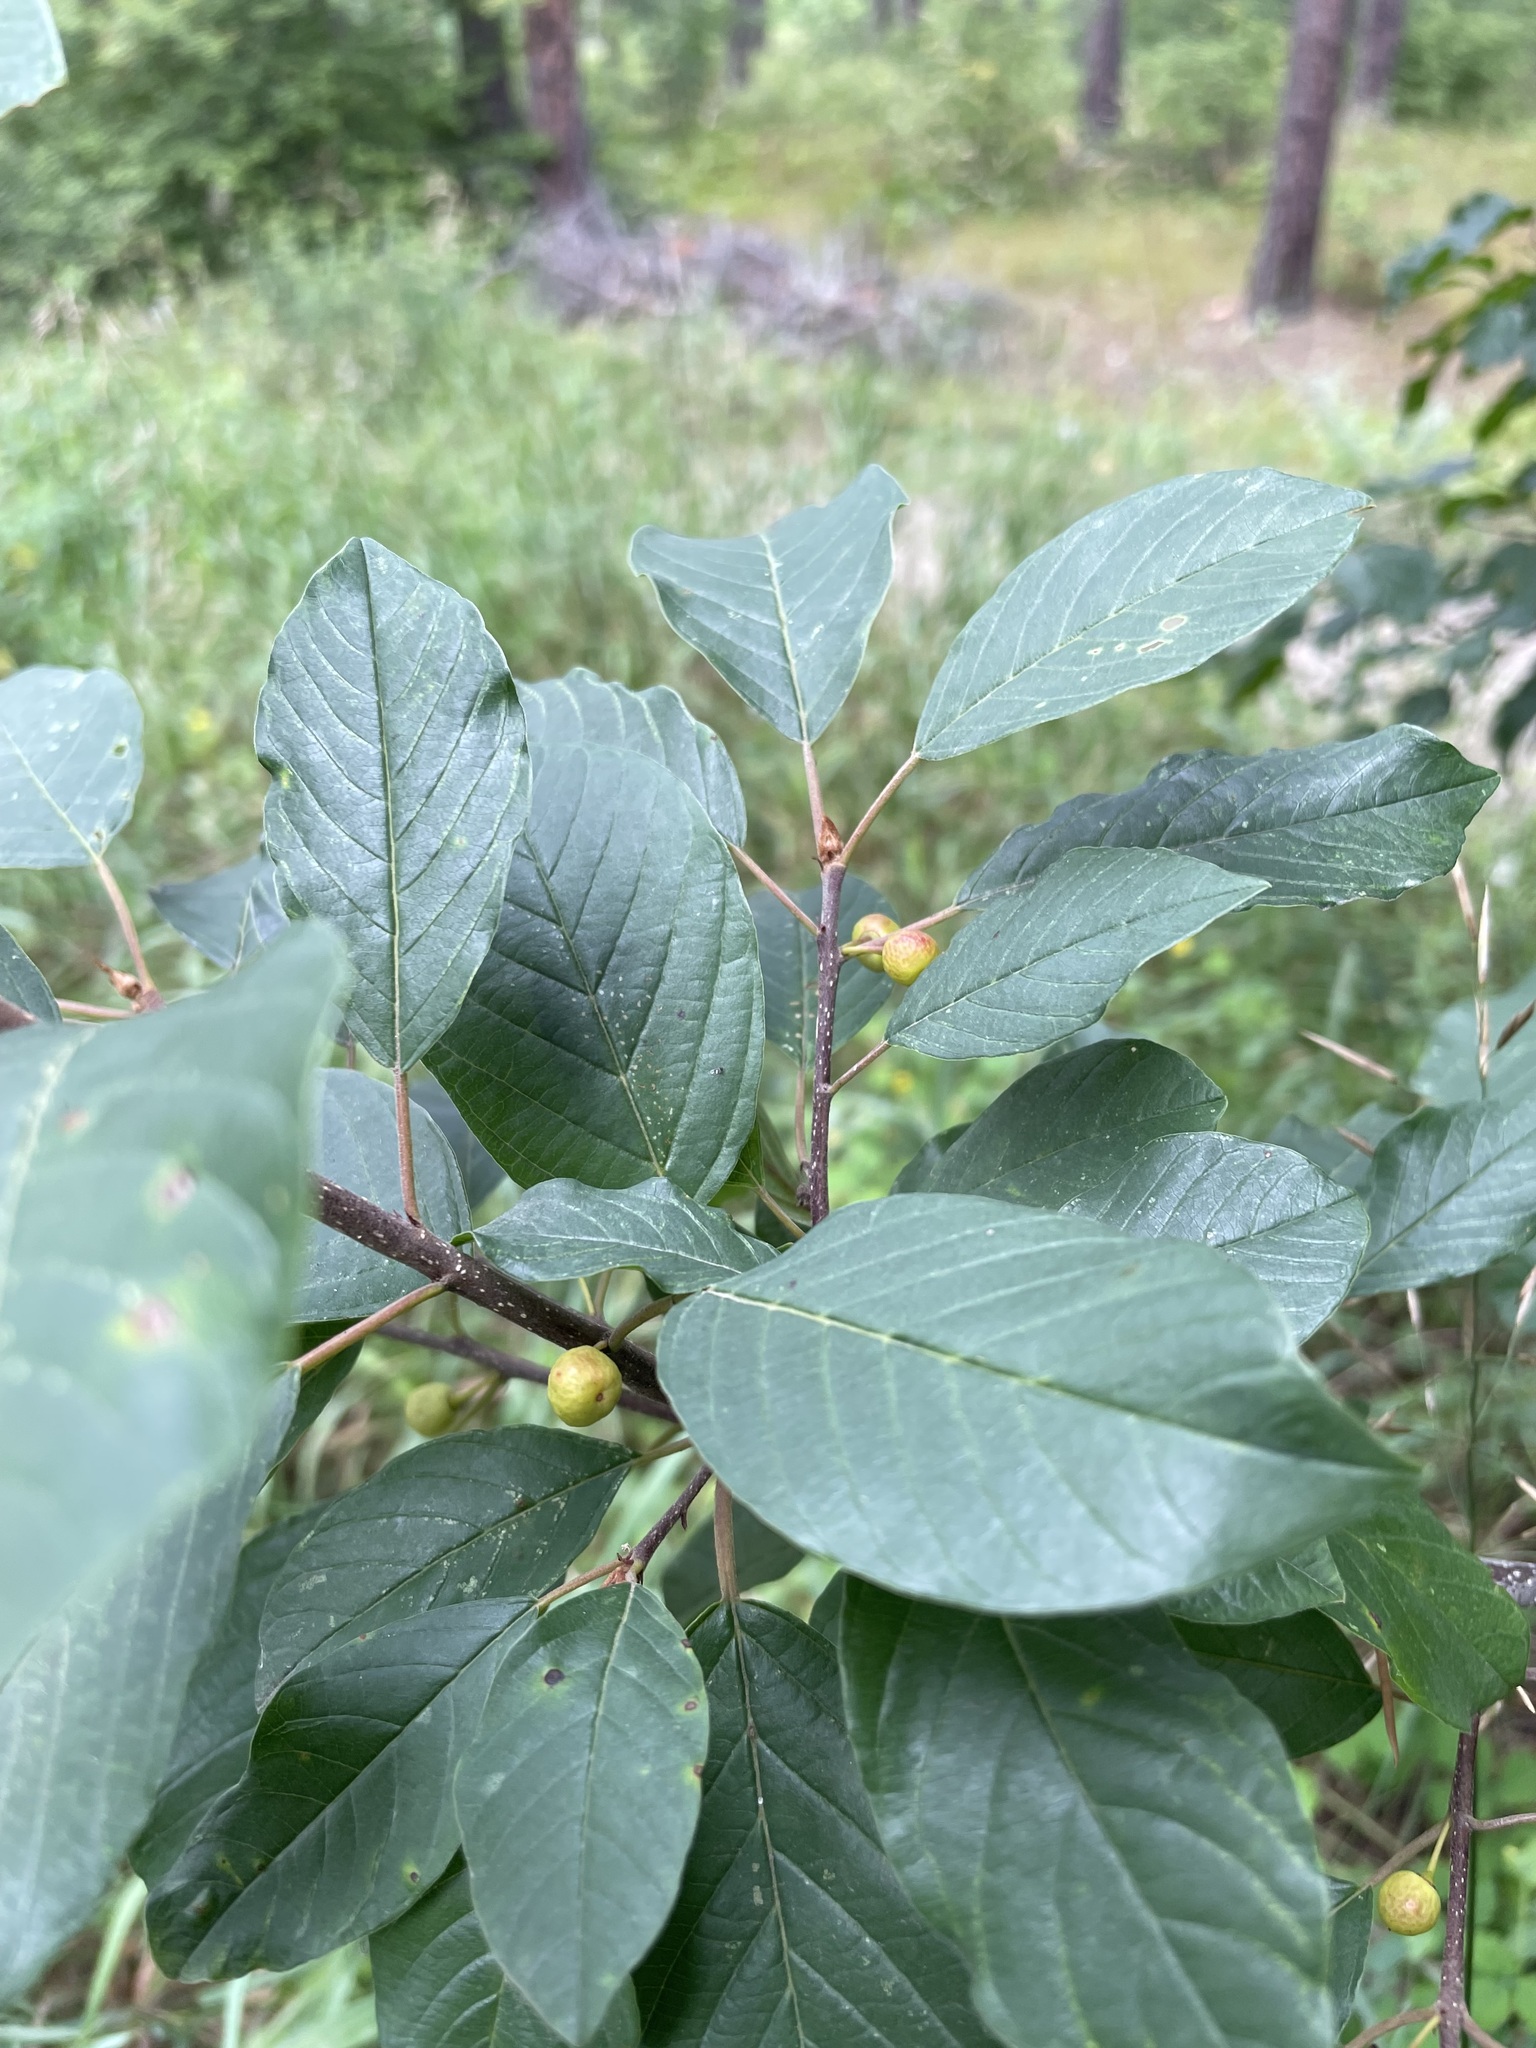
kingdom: Plantae
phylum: Tracheophyta
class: Magnoliopsida
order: Rosales
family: Rhamnaceae
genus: Frangula
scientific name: Frangula alnus
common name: Alder buckthorn
